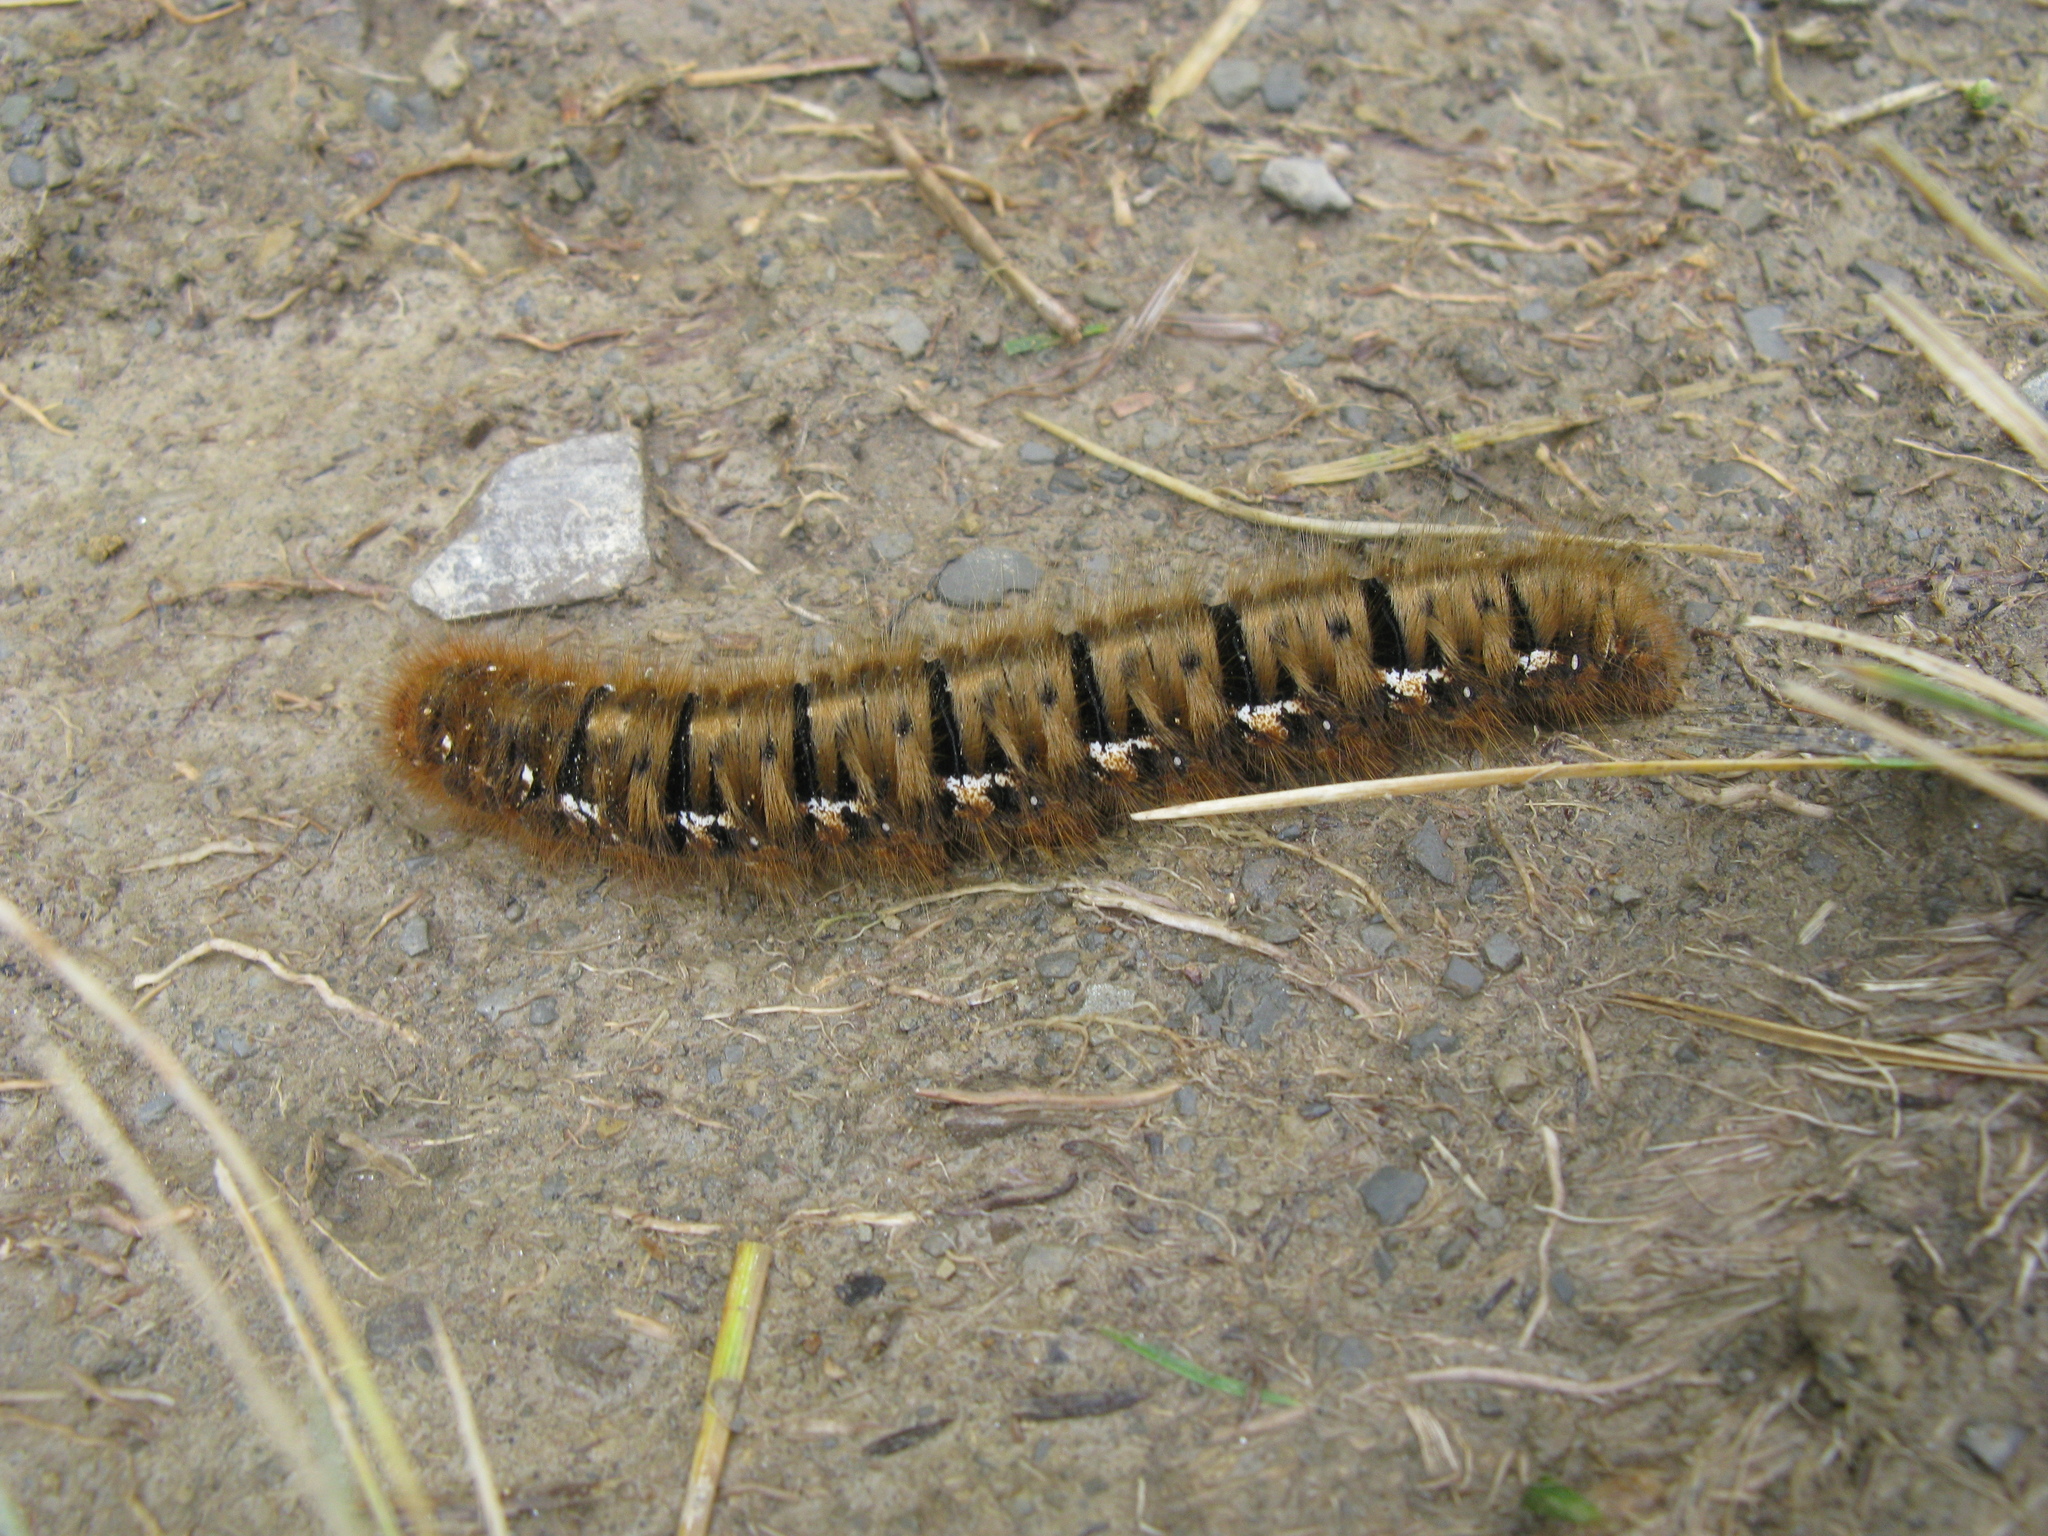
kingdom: Animalia
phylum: Arthropoda
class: Insecta
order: Lepidoptera
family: Lasiocampidae
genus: Lasiocampa
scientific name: Lasiocampa quercus
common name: Oak eggar
